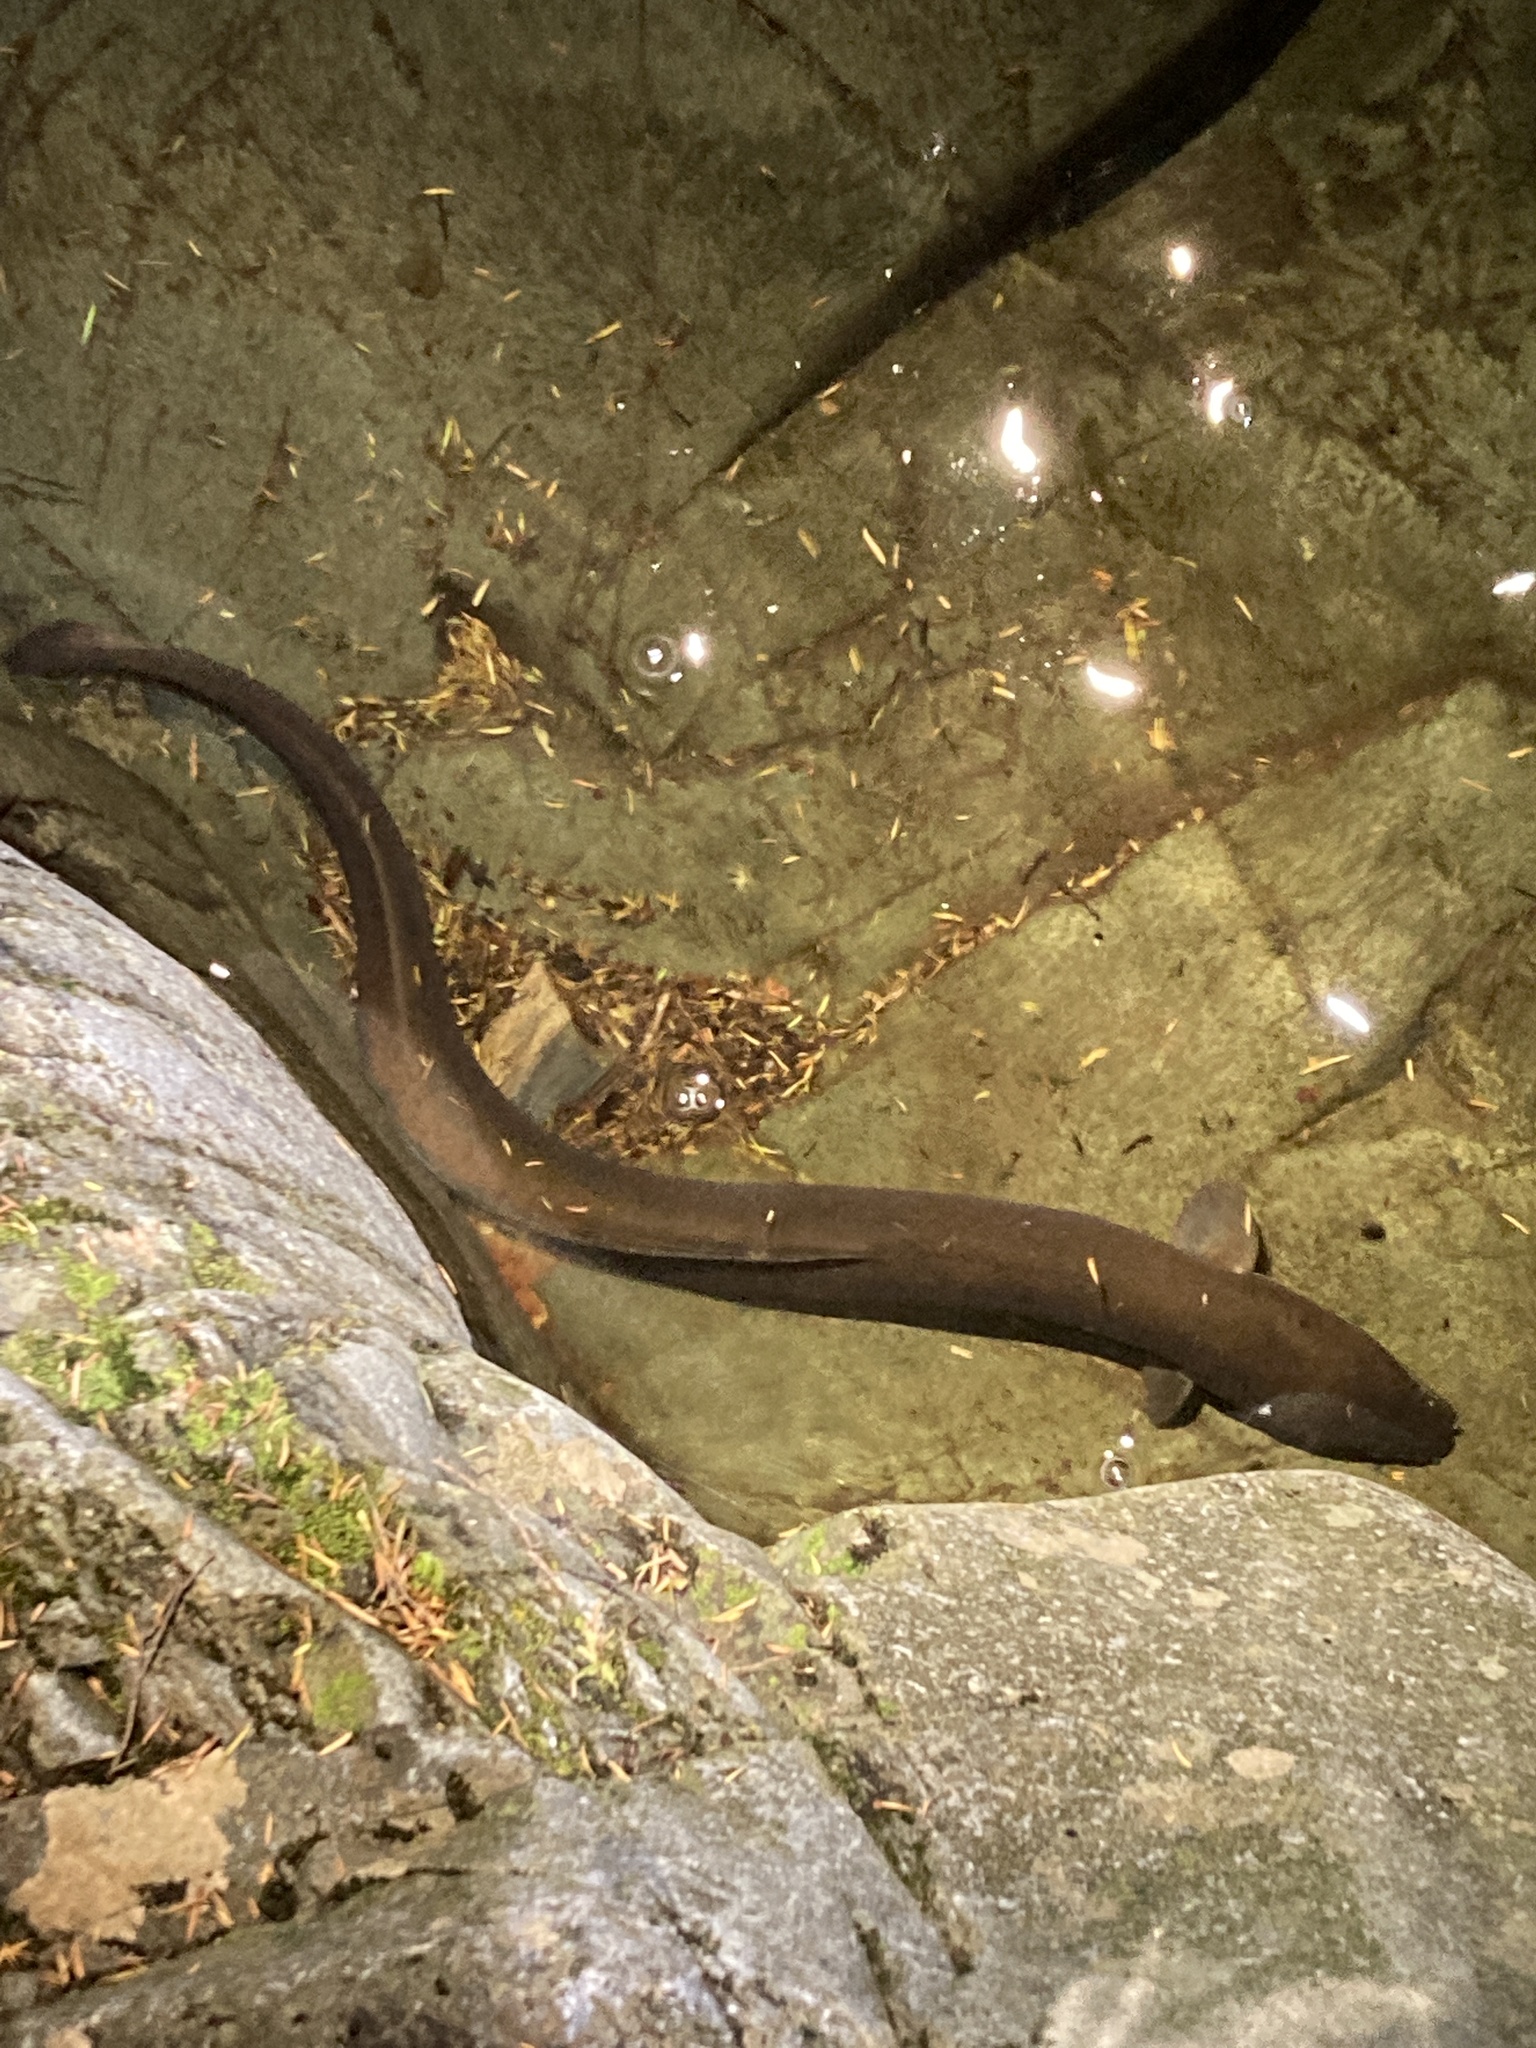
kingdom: Animalia
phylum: Chordata
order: Anguilliformes
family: Anguillidae
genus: Anguilla
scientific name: Anguilla dieffenbachii
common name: New zealand longfin eel
